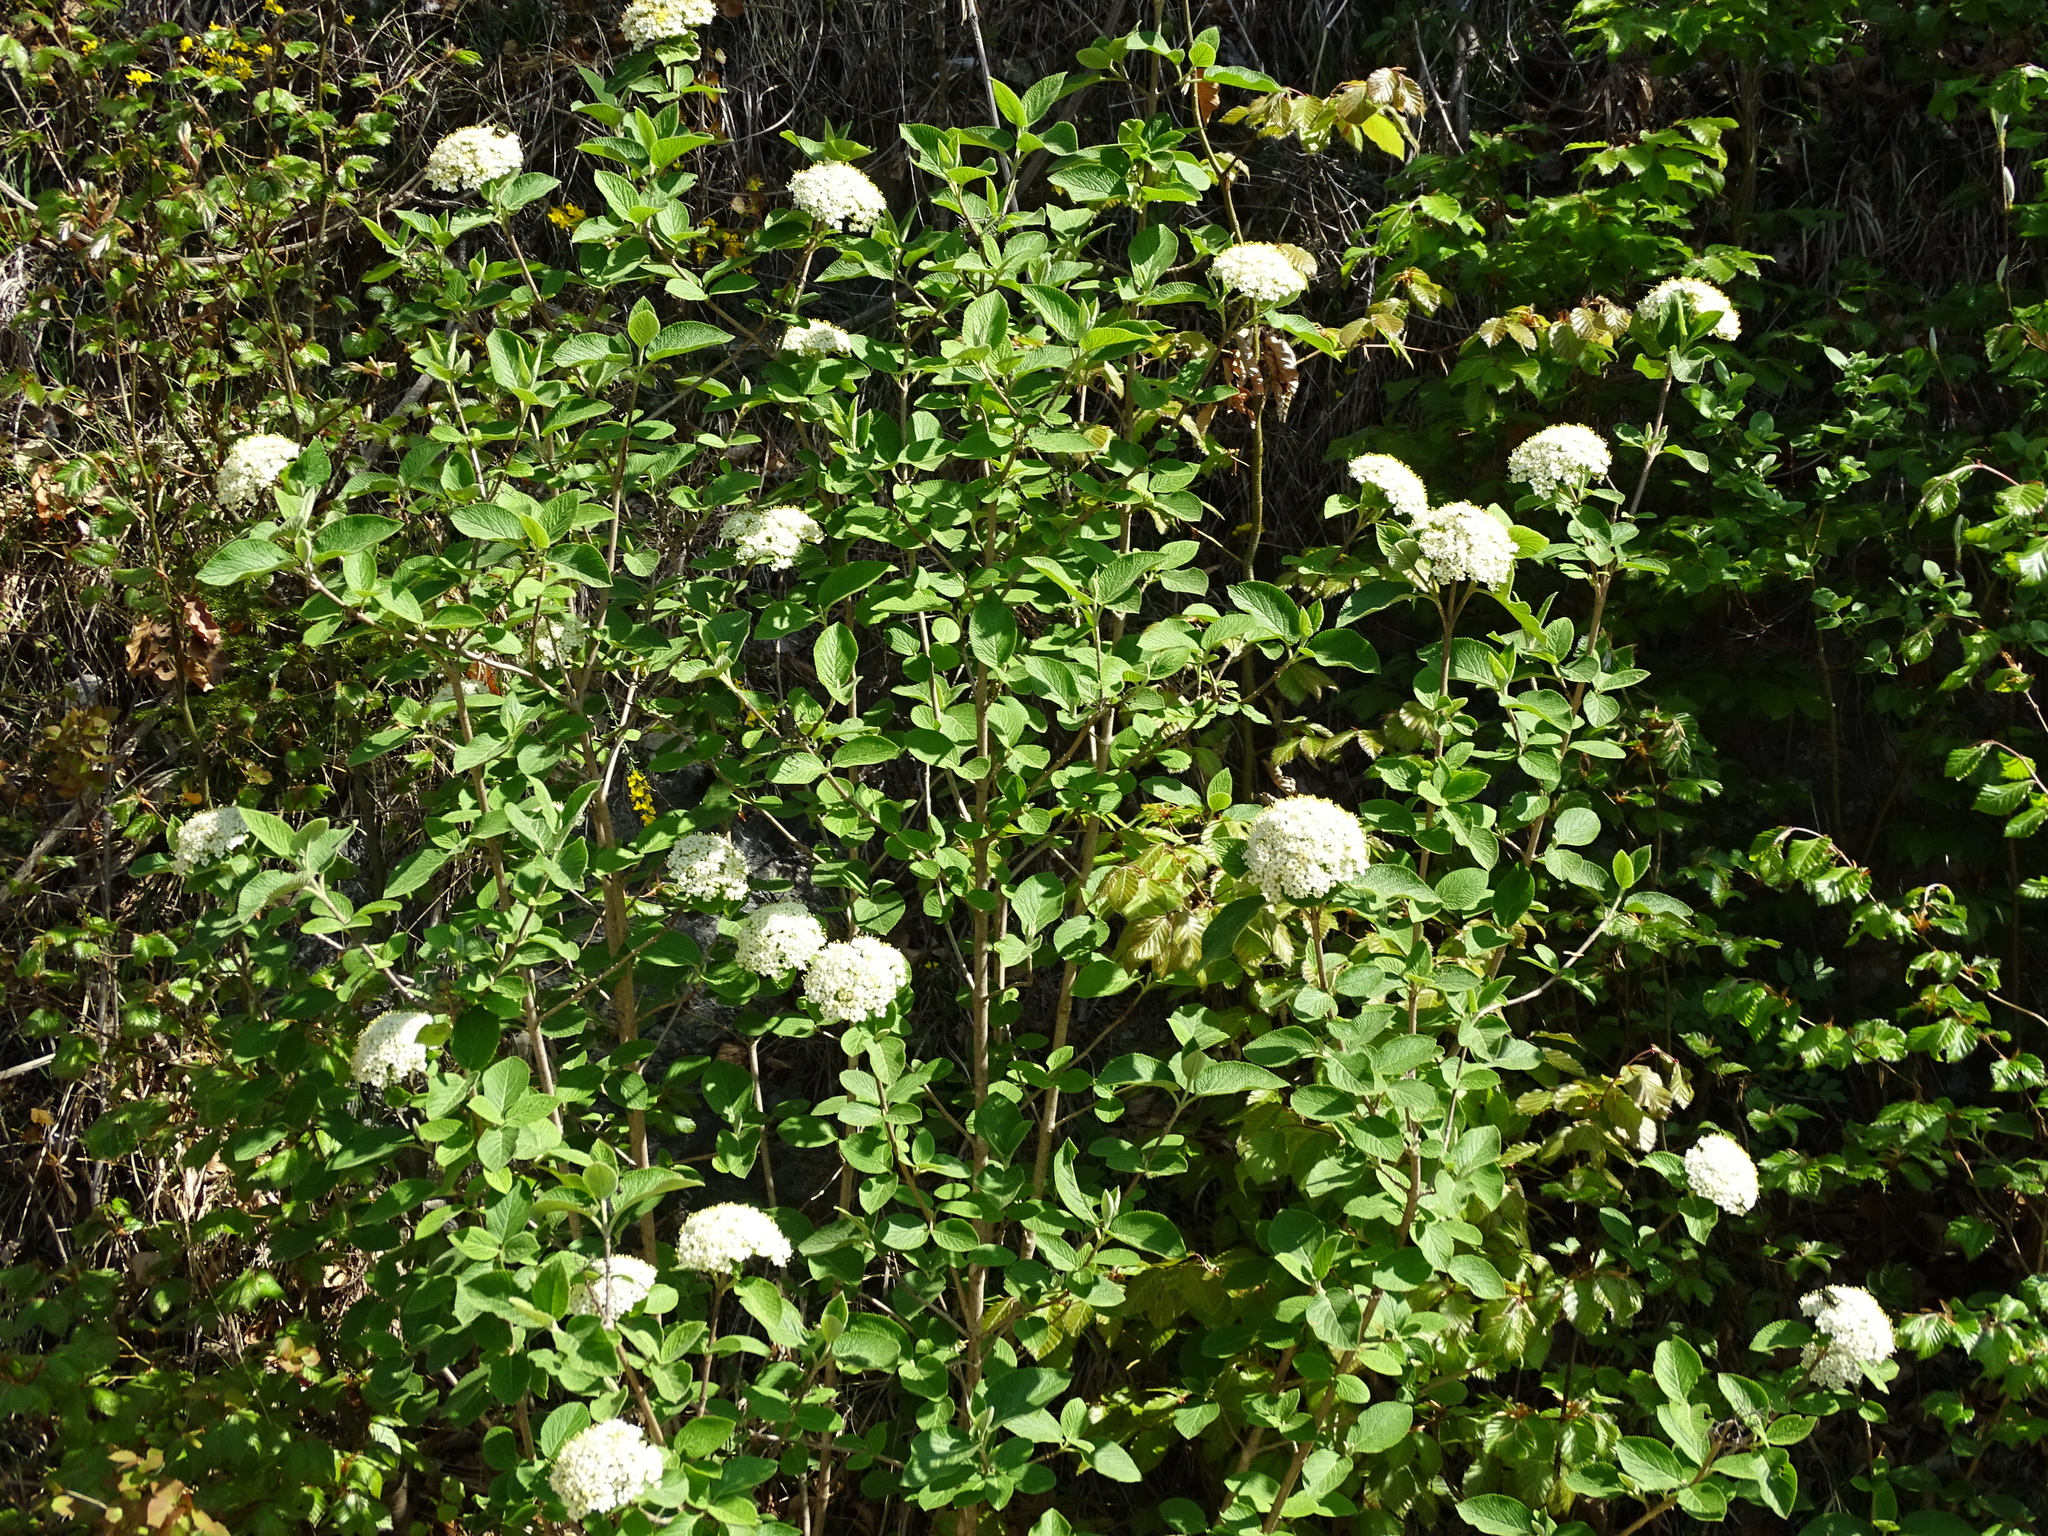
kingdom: Plantae
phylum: Tracheophyta
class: Magnoliopsida
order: Dipsacales
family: Viburnaceae
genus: Viburnum
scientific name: Viburnum lantana
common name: Wayfaring tree
